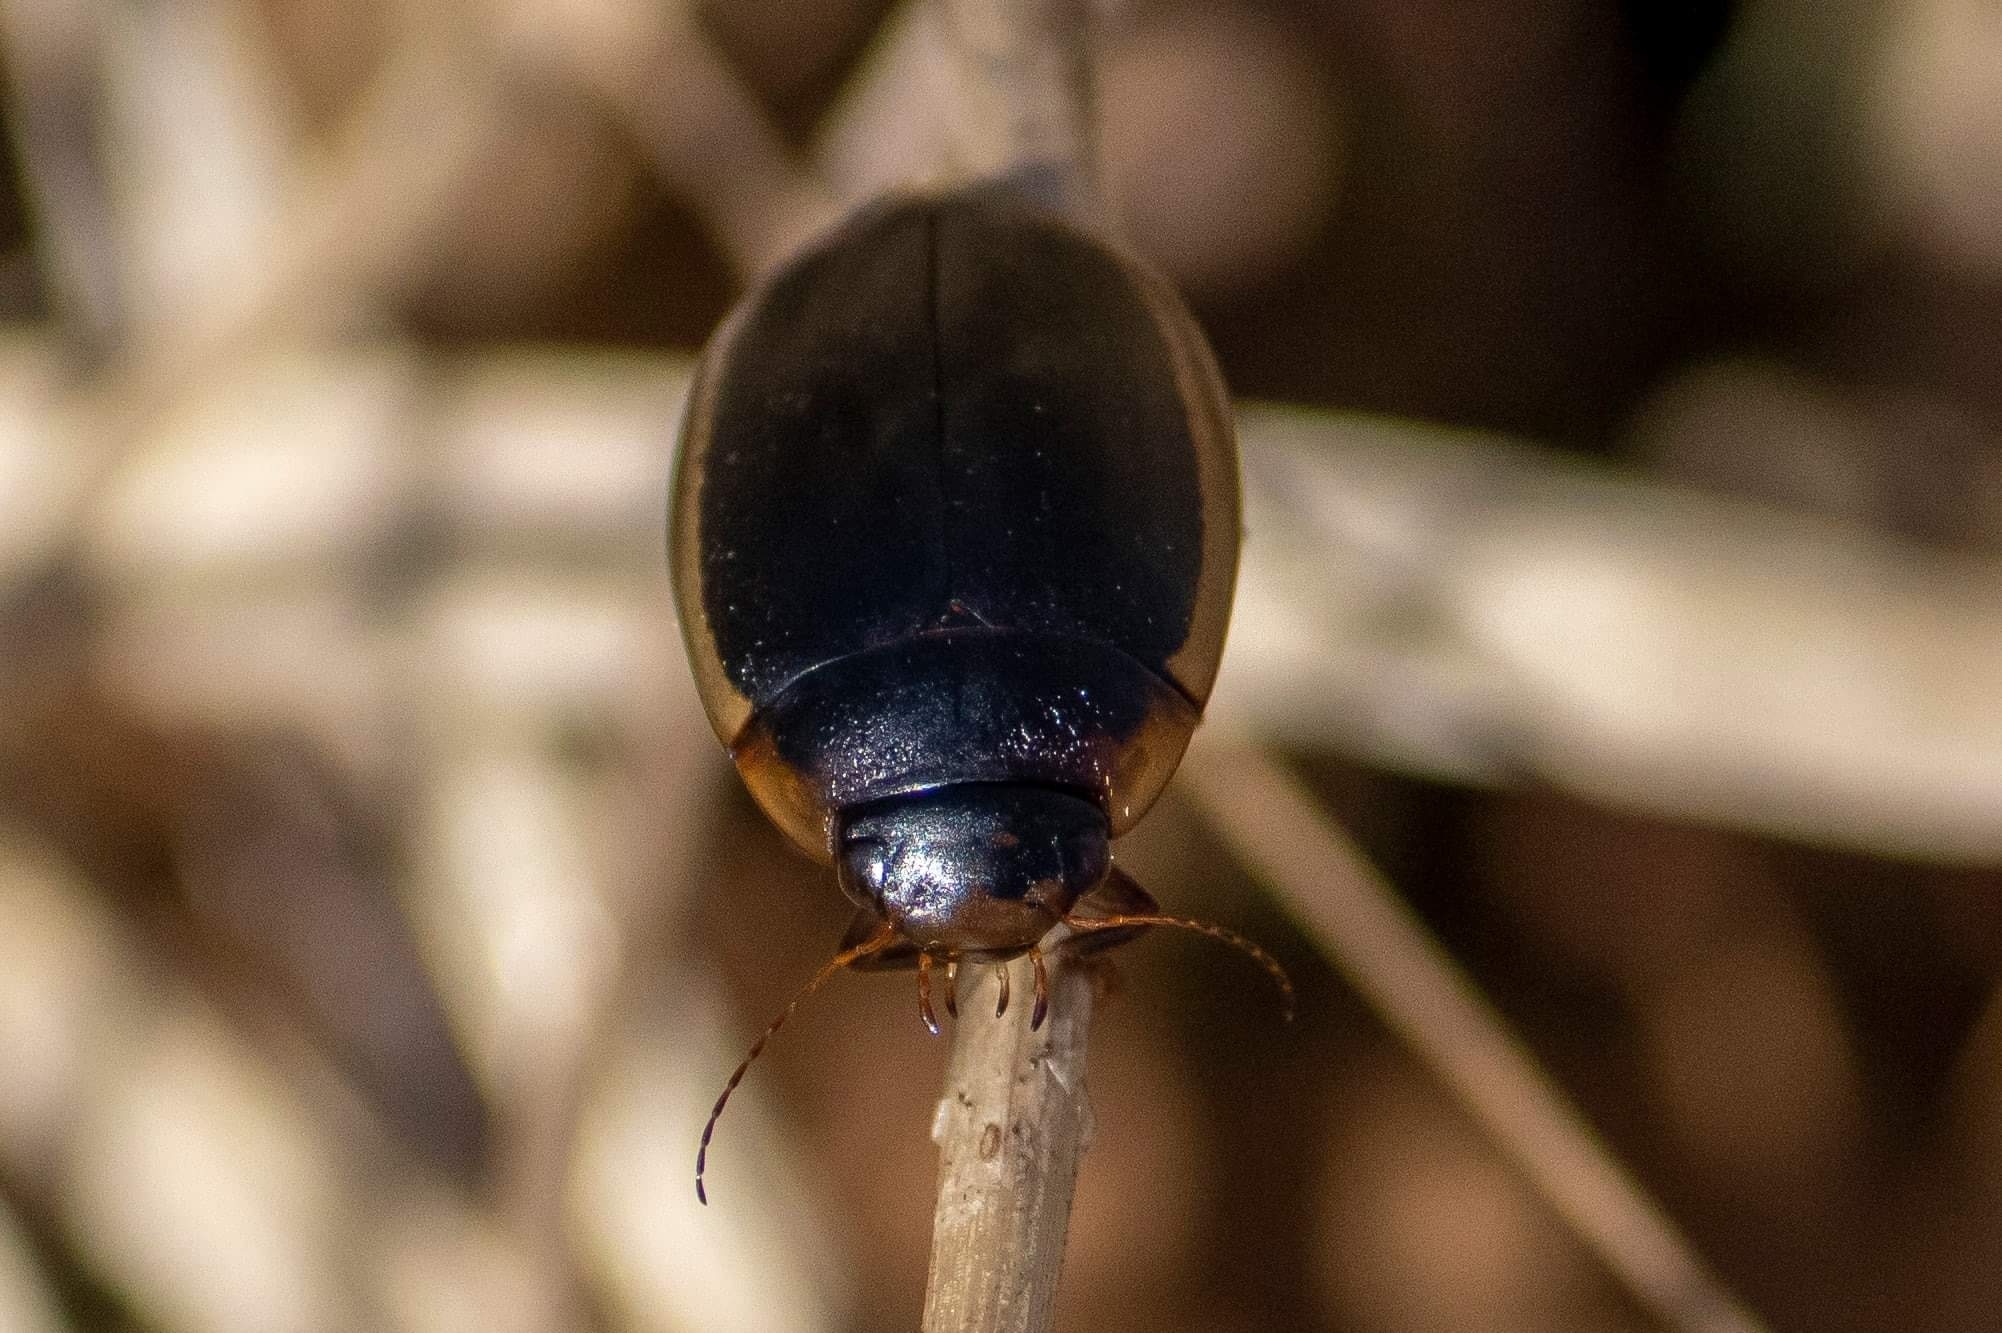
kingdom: Animalia
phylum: Arthropoda
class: Insecta
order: Coleoptera
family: Dytiscidae
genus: Hydaticus
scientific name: Hydaticus seminiger
